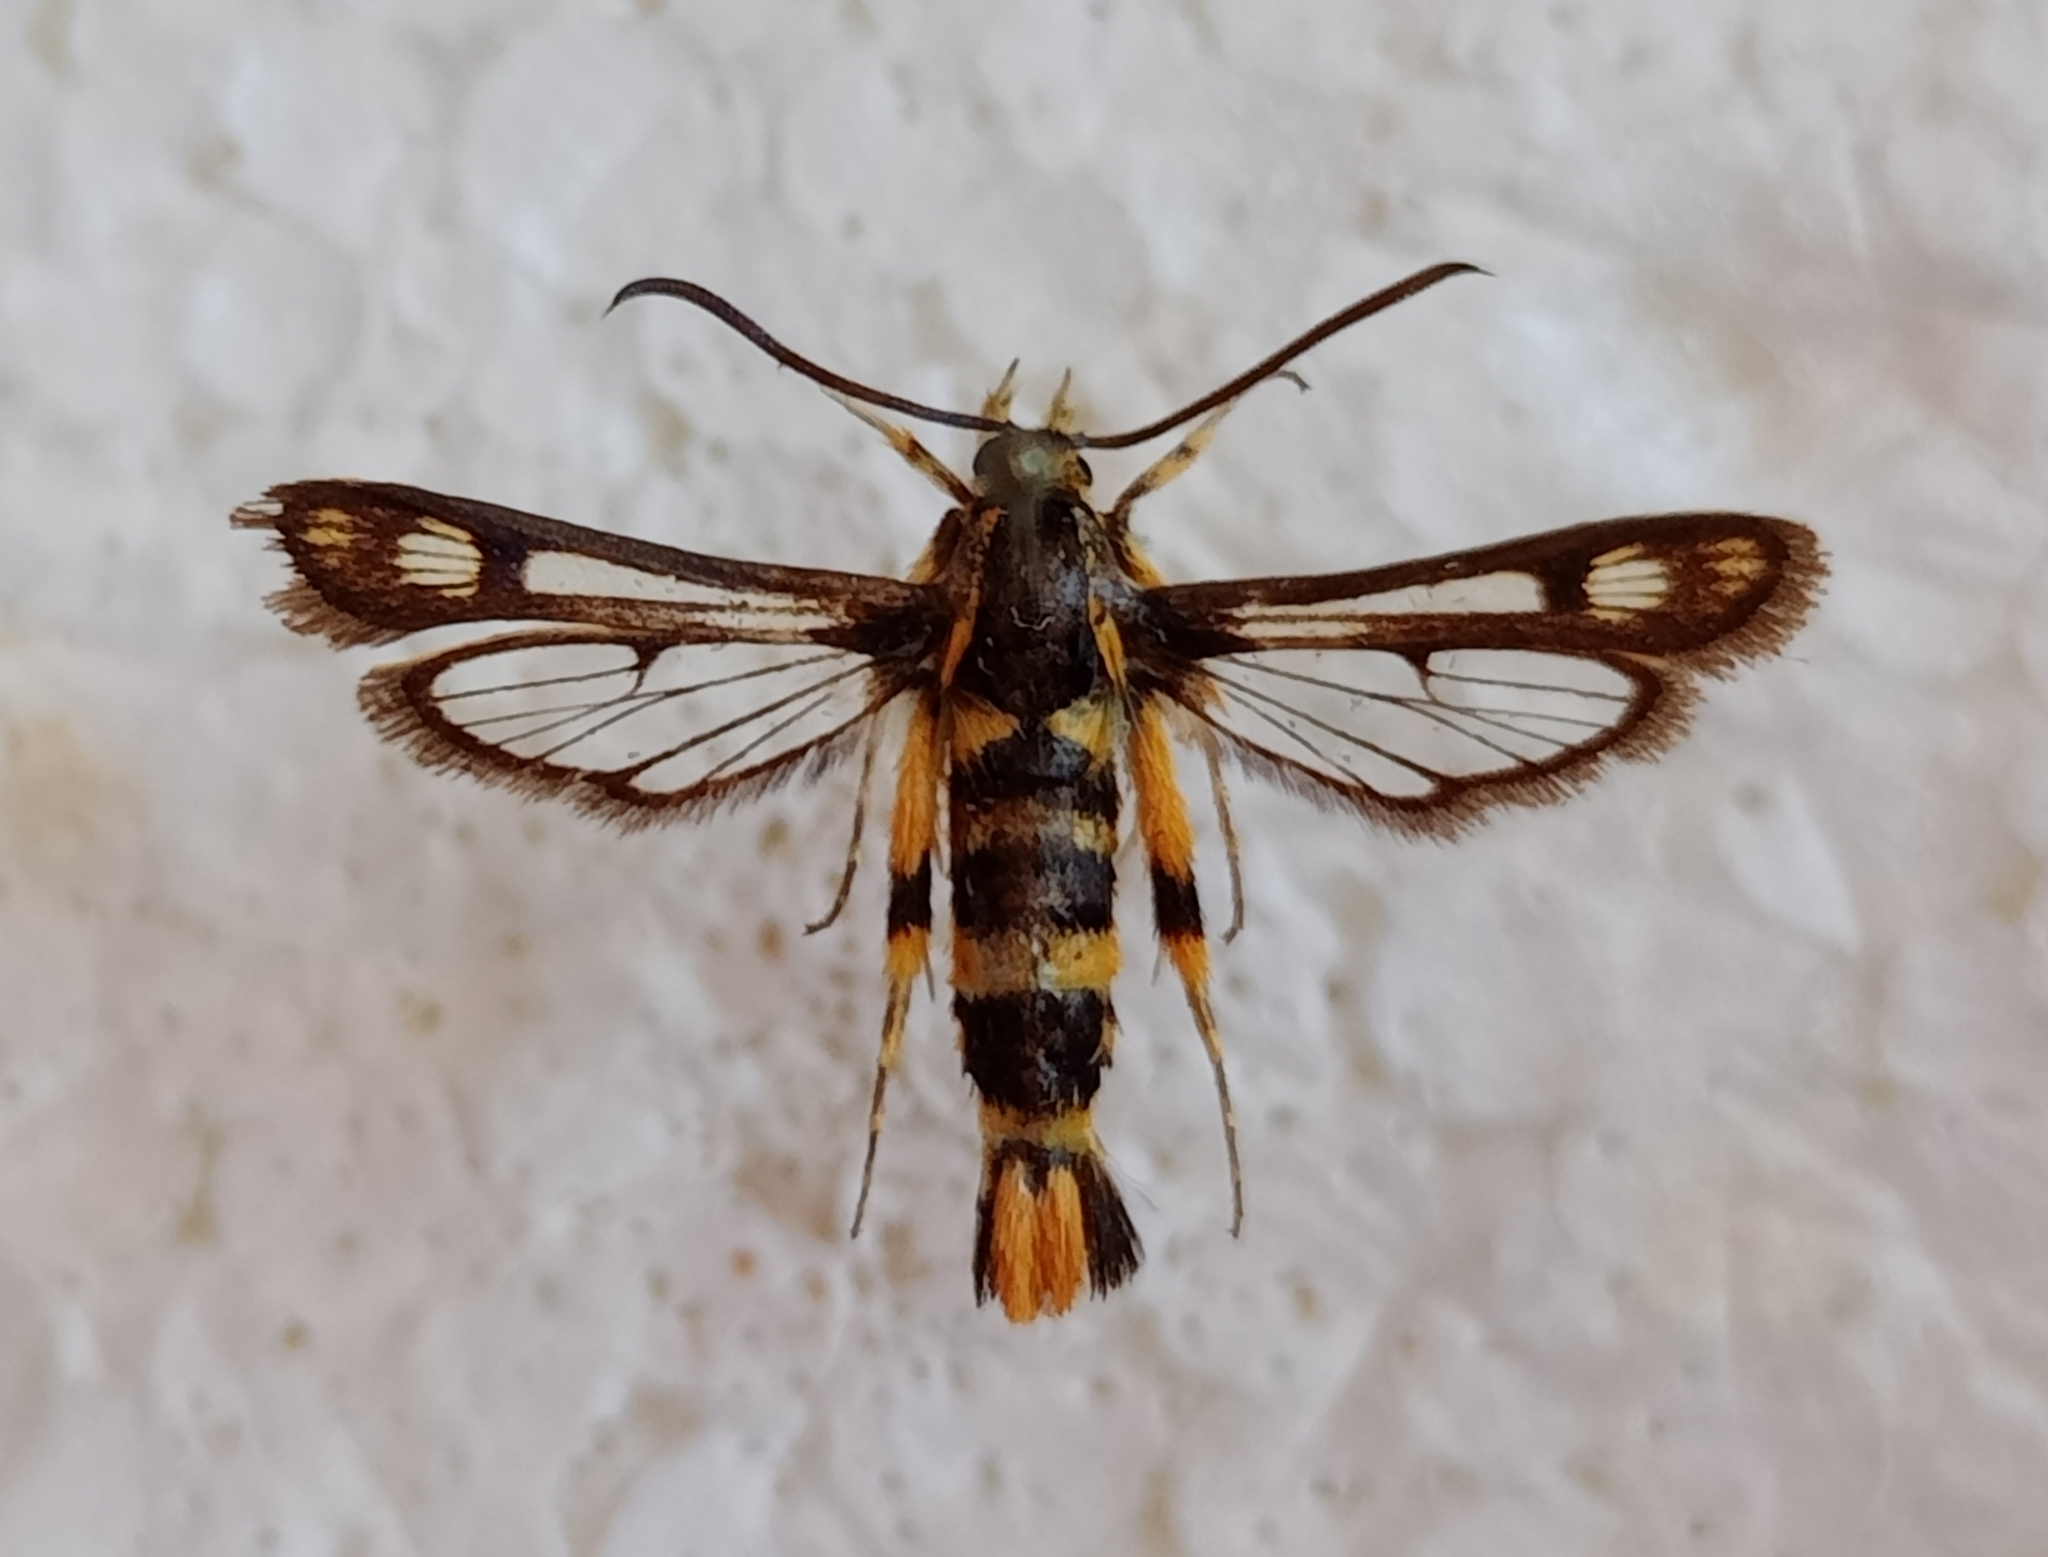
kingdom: Animalia
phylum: Arthropoda
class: Insecta
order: Lepidoptera
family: Sesiidae
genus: Chamaesphecia
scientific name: Chamaesphecia masariformis
